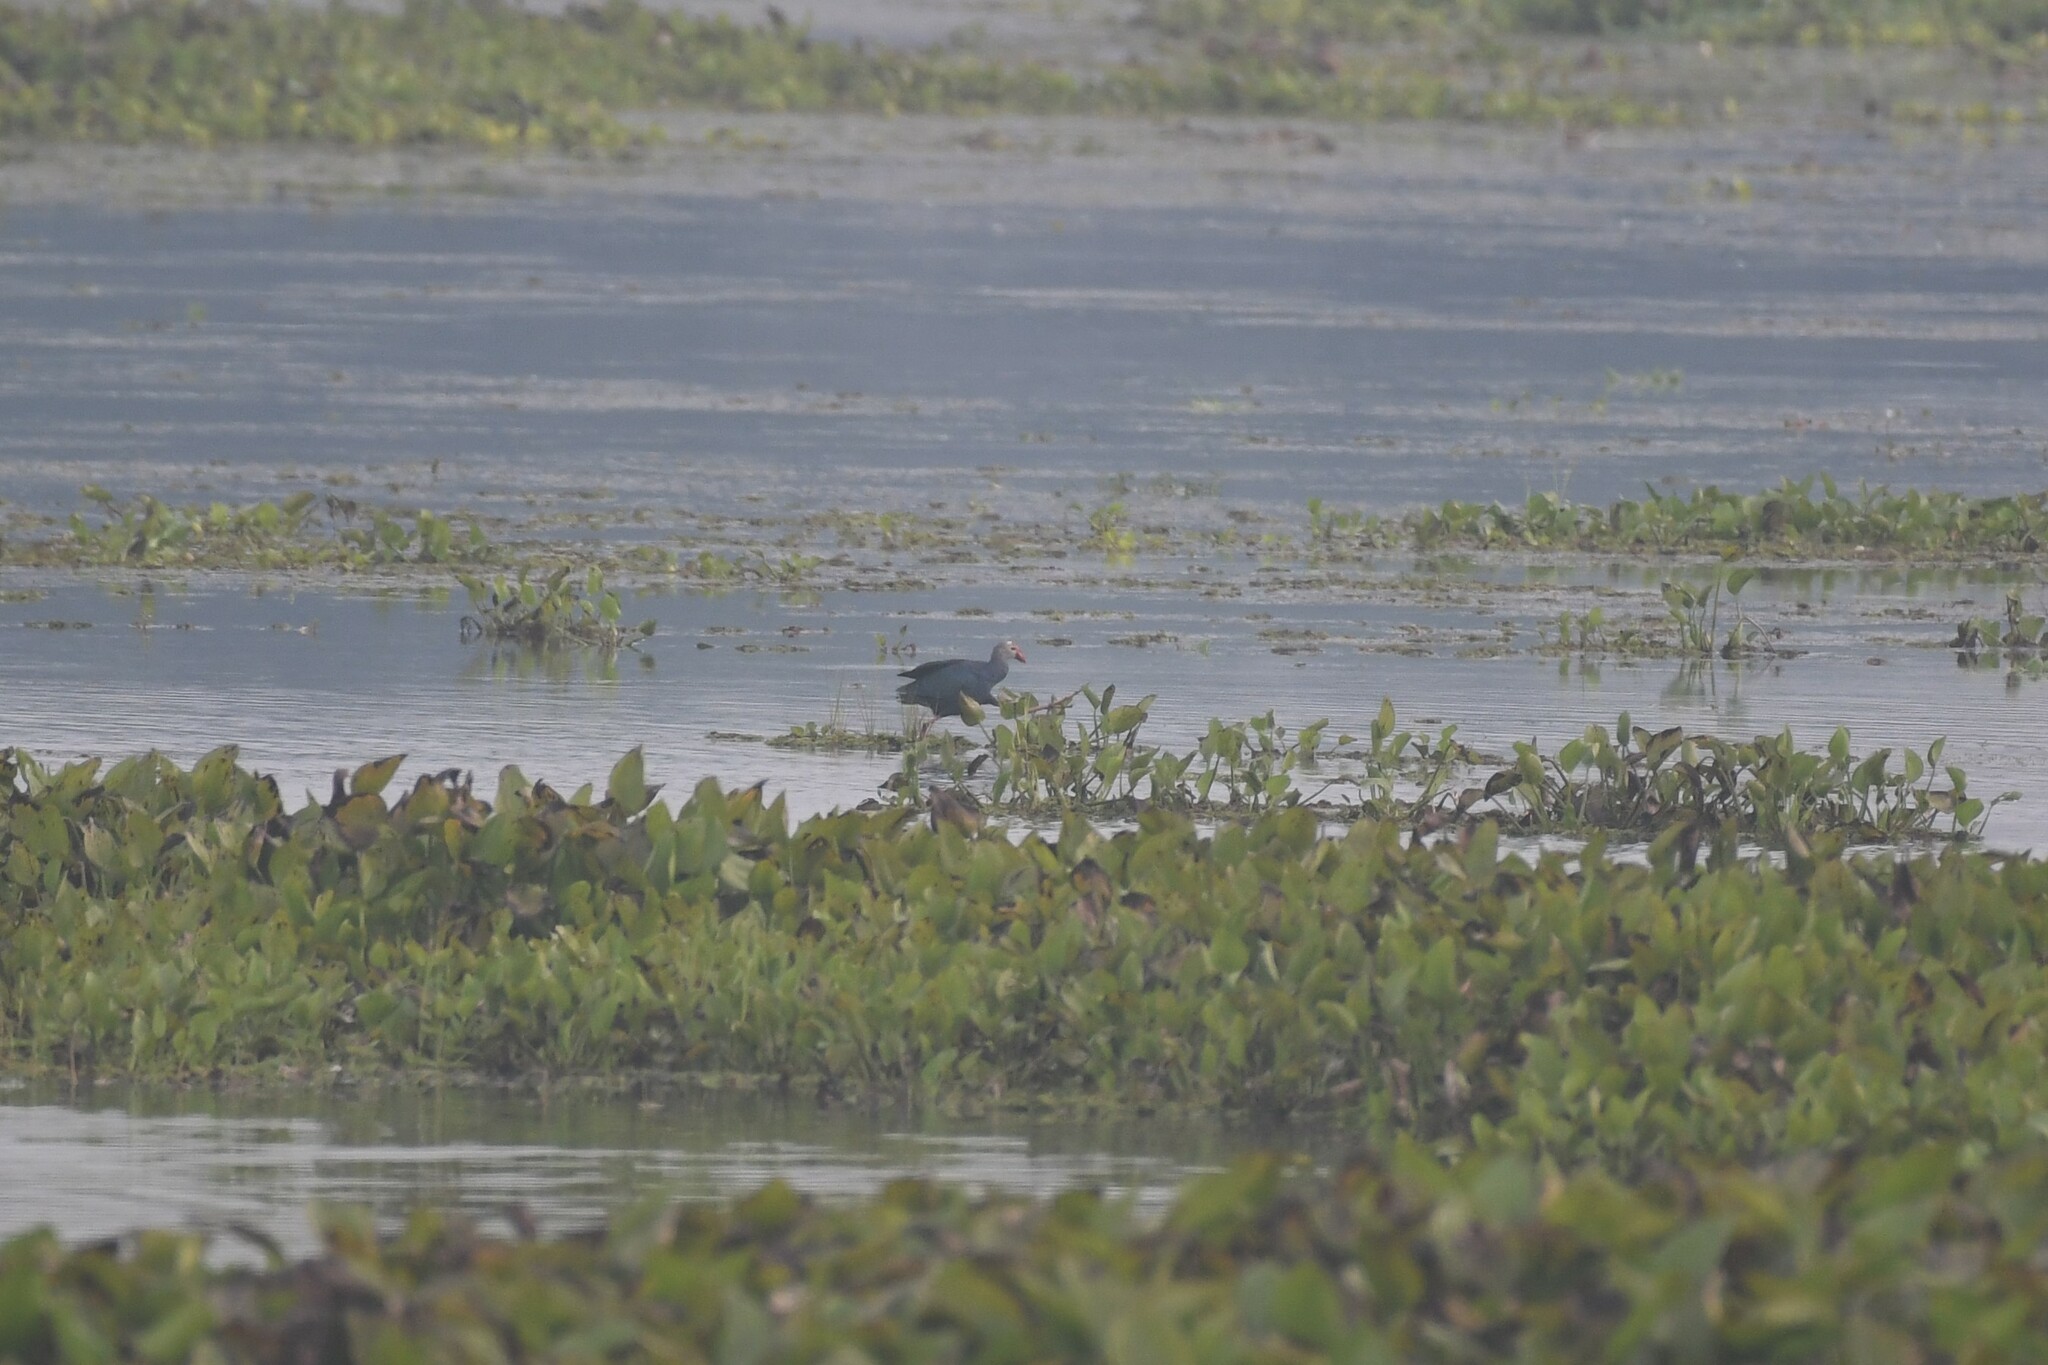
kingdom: Animalia
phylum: Chordata
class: Aves
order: Gruiformes
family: Rallidae
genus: Porphyrio
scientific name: Porphyrio porphyrio
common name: Purple swamphen
